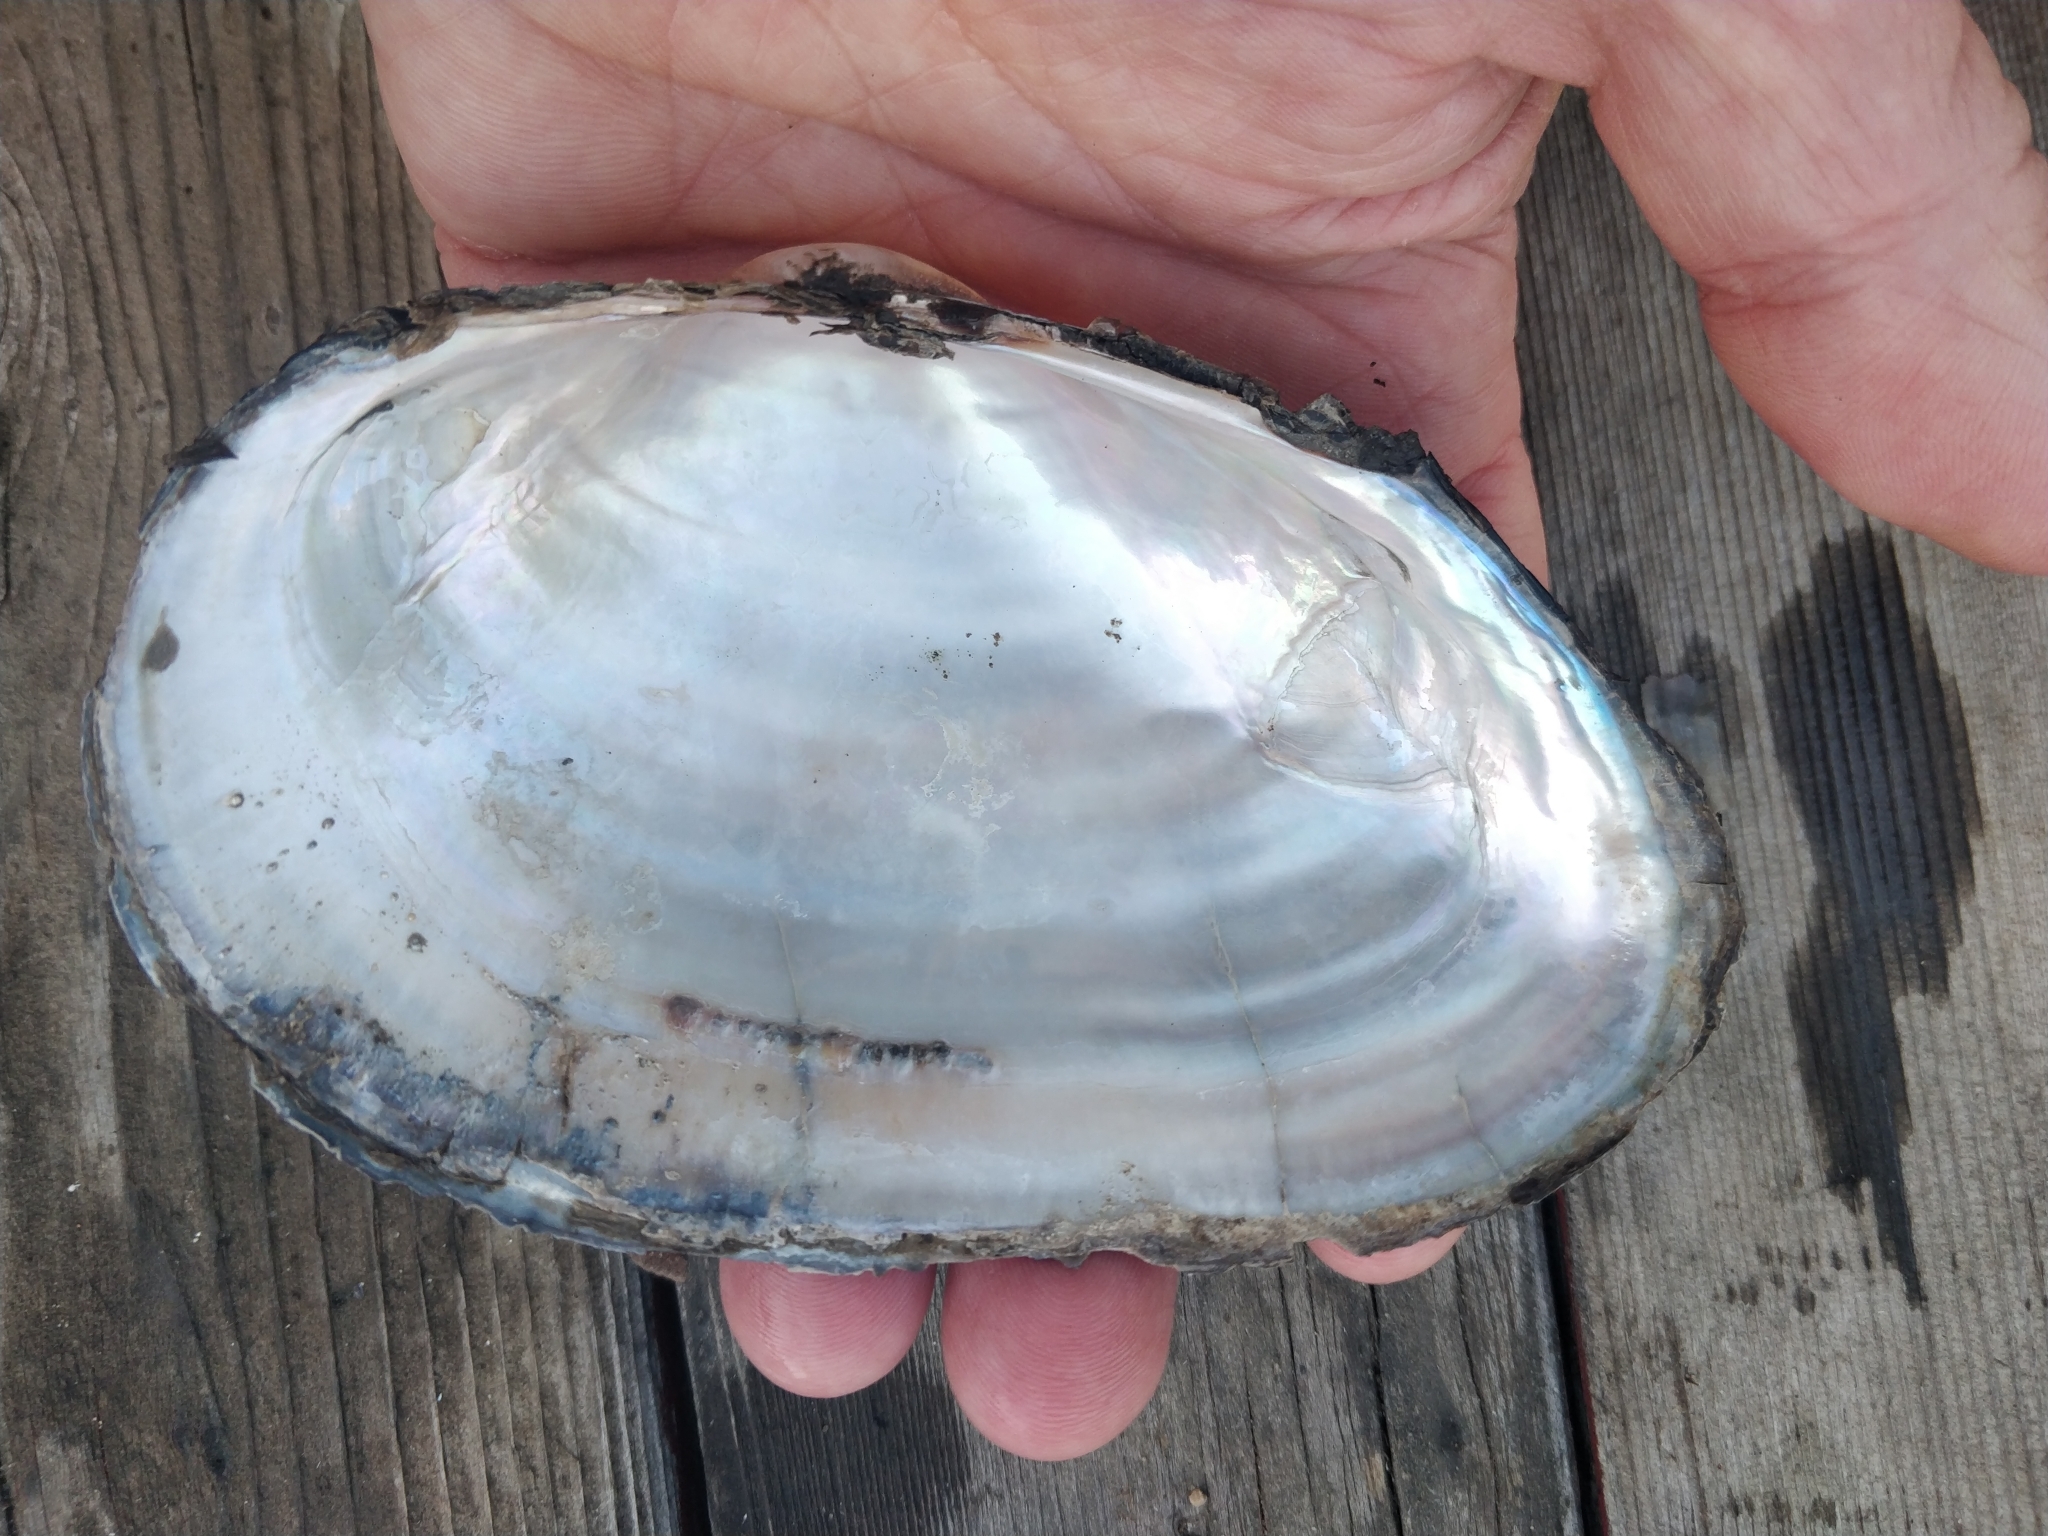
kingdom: Animalia
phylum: Mollusca
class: Bivalvia
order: Unionida
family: Unionidae
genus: Pyganodon
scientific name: Pyganodon grandis
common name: Giant floater
